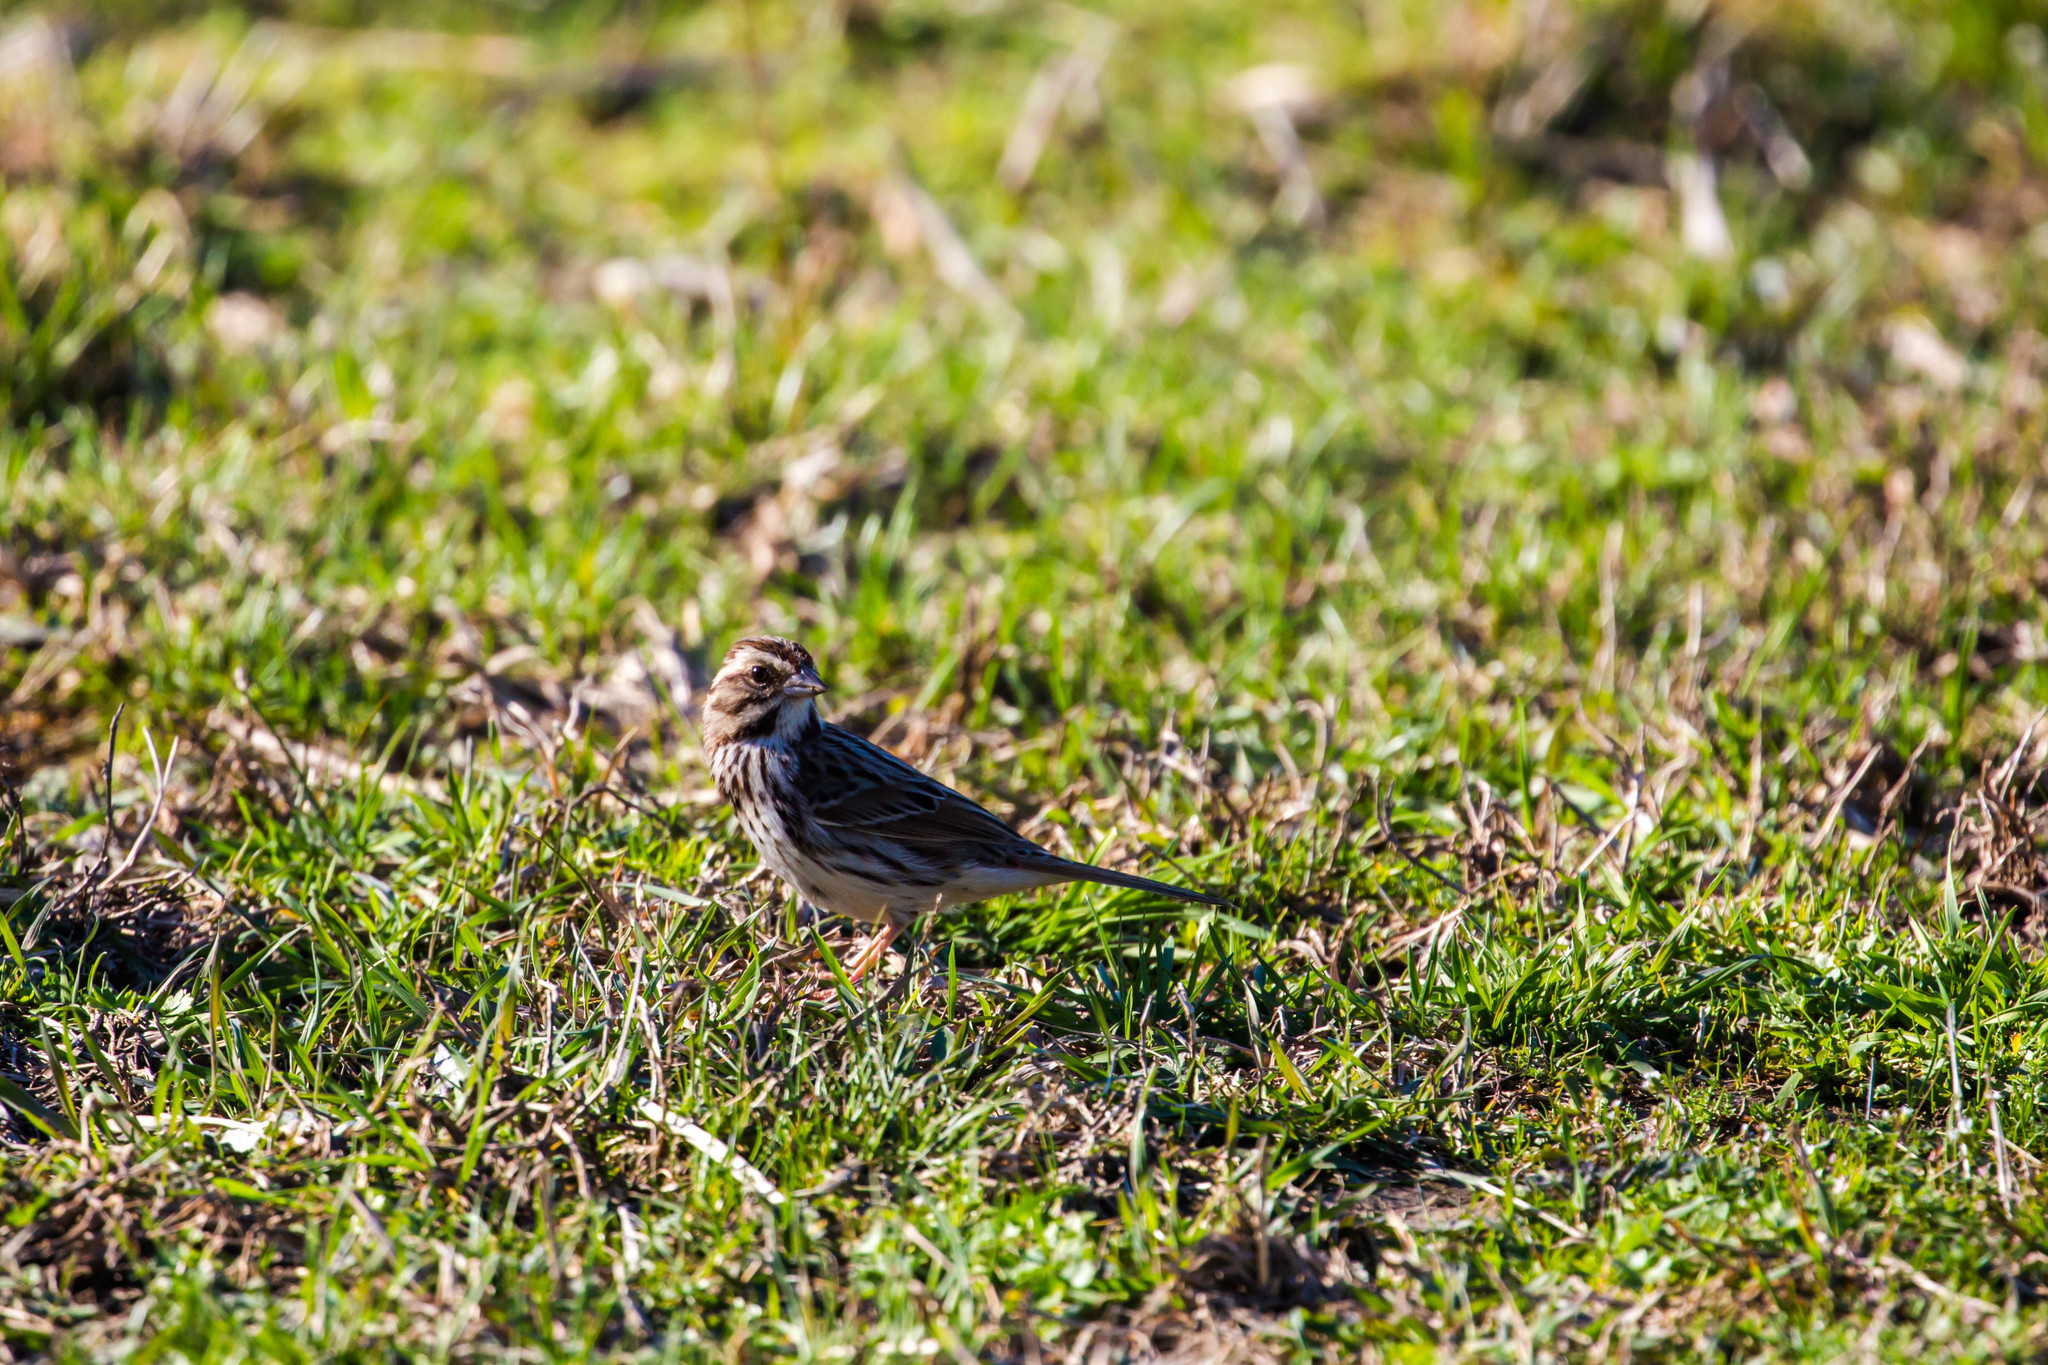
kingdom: Animalia
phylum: Chordata
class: Aves
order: Passeriformes
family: Passerellidae
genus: Melospiza
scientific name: Melospiza melodia
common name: Song sparrow
